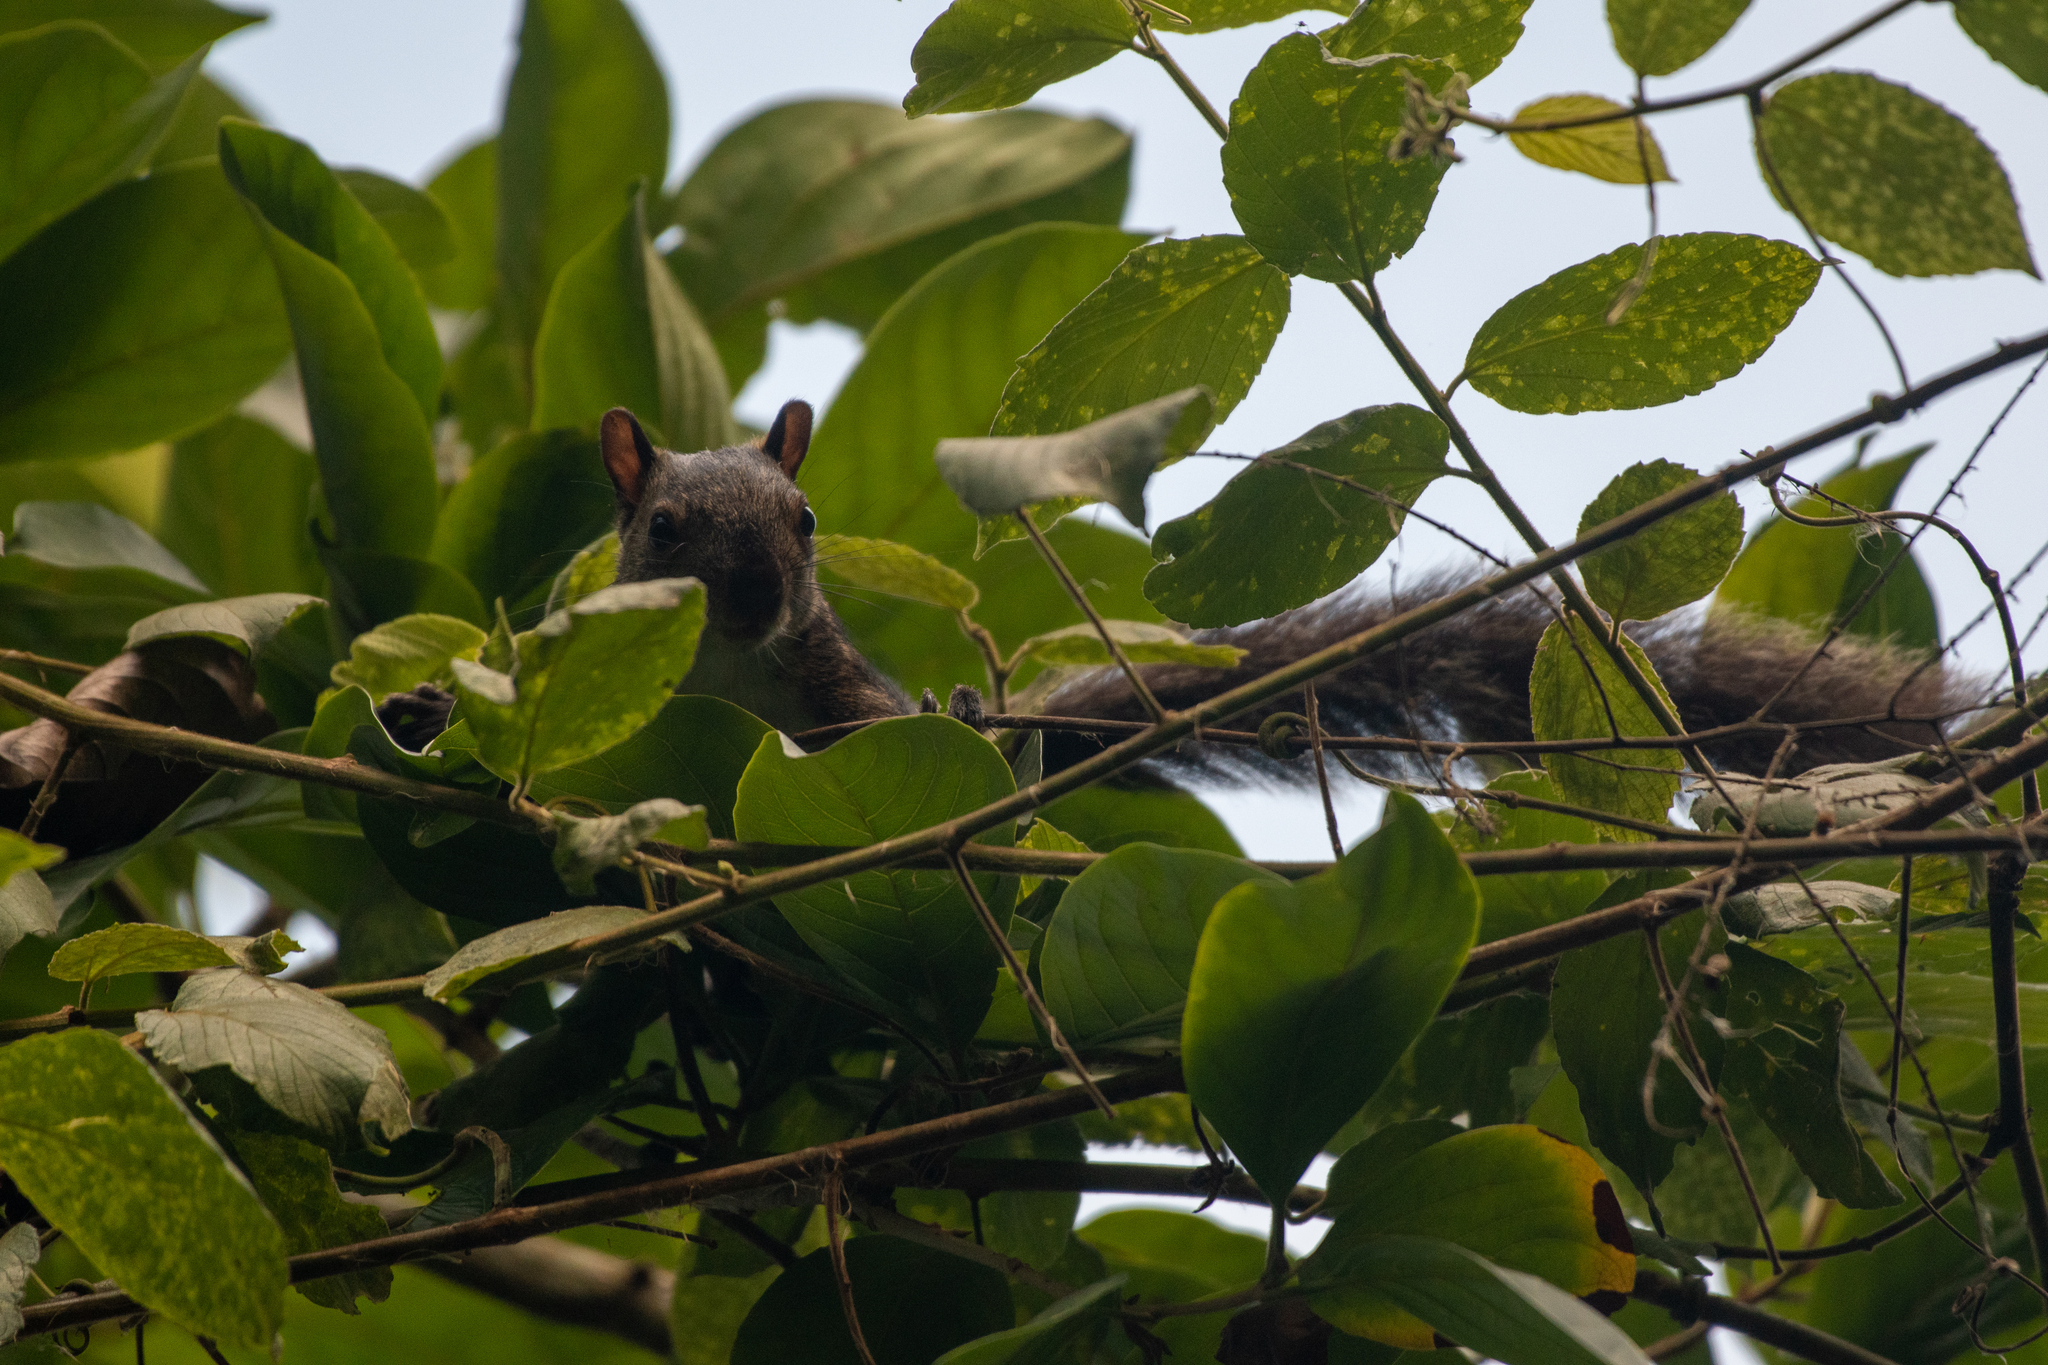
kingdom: Animalia
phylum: Chordata
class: Mammalia
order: Rodentia
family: Sciuridae
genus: Sciurus
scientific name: Sciurus variegatoides
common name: Variegated squirrel
